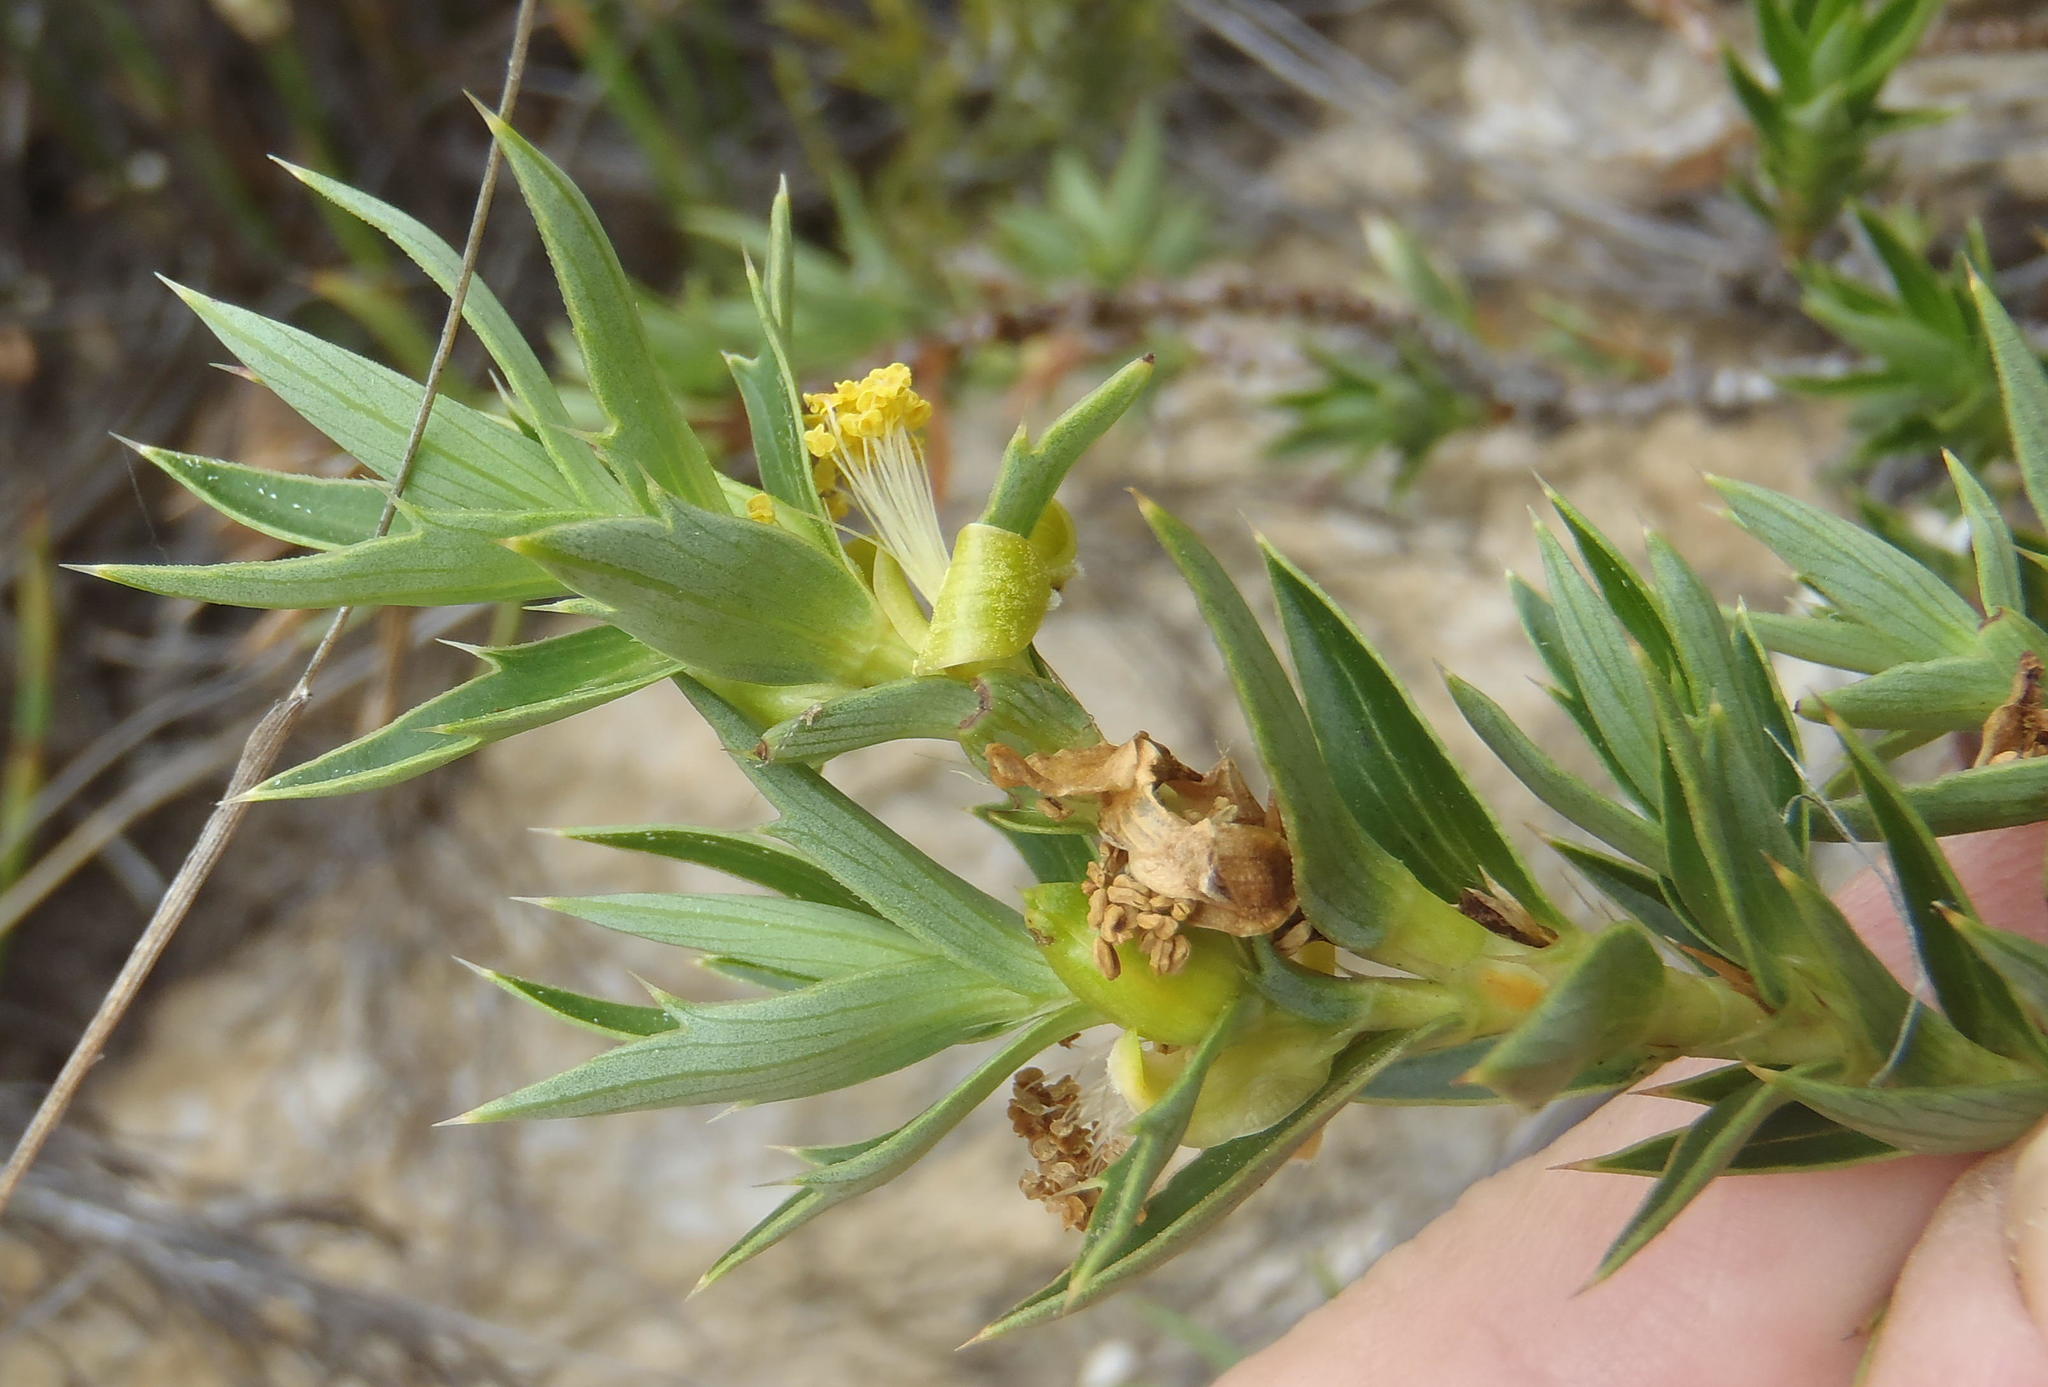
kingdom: Plantae
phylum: Tracheophyta
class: Magnoliopsida
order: Rosales
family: Rosaceae
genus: Cliffortia
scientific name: Cliffortia ilicifolia
